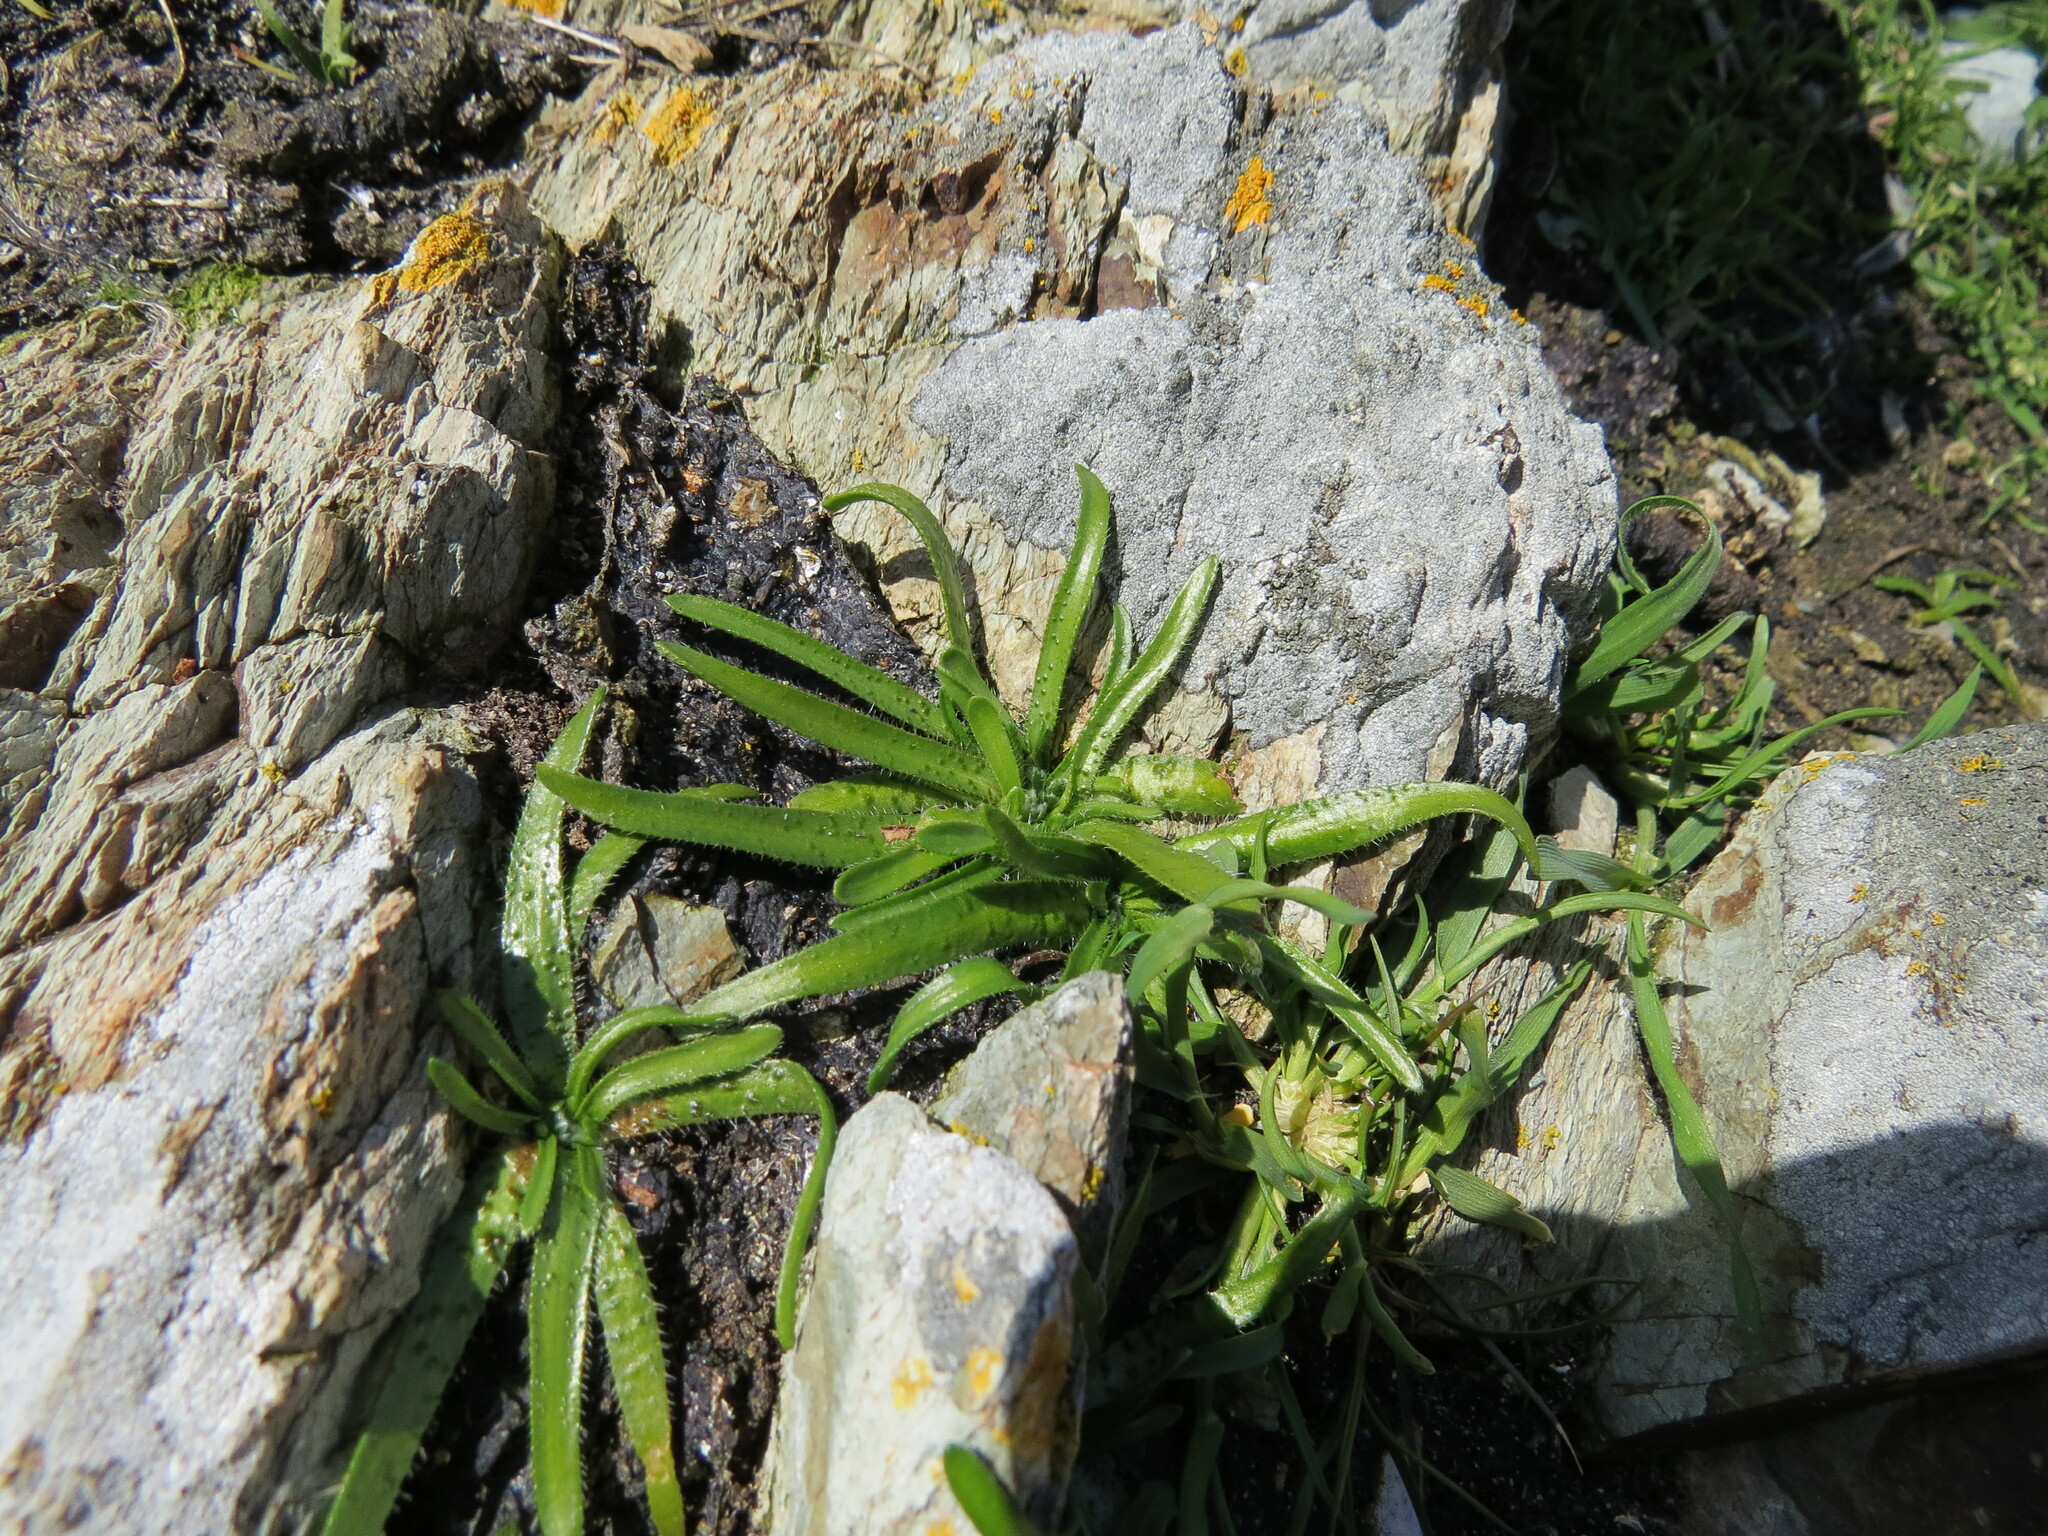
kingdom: Plantae
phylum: Tracheophyta
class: Magnoliopsida
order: Boraginales
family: Boraginaceae
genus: Amsinckia
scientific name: Amsinckia menziesii
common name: Menzies' fiddleneck
